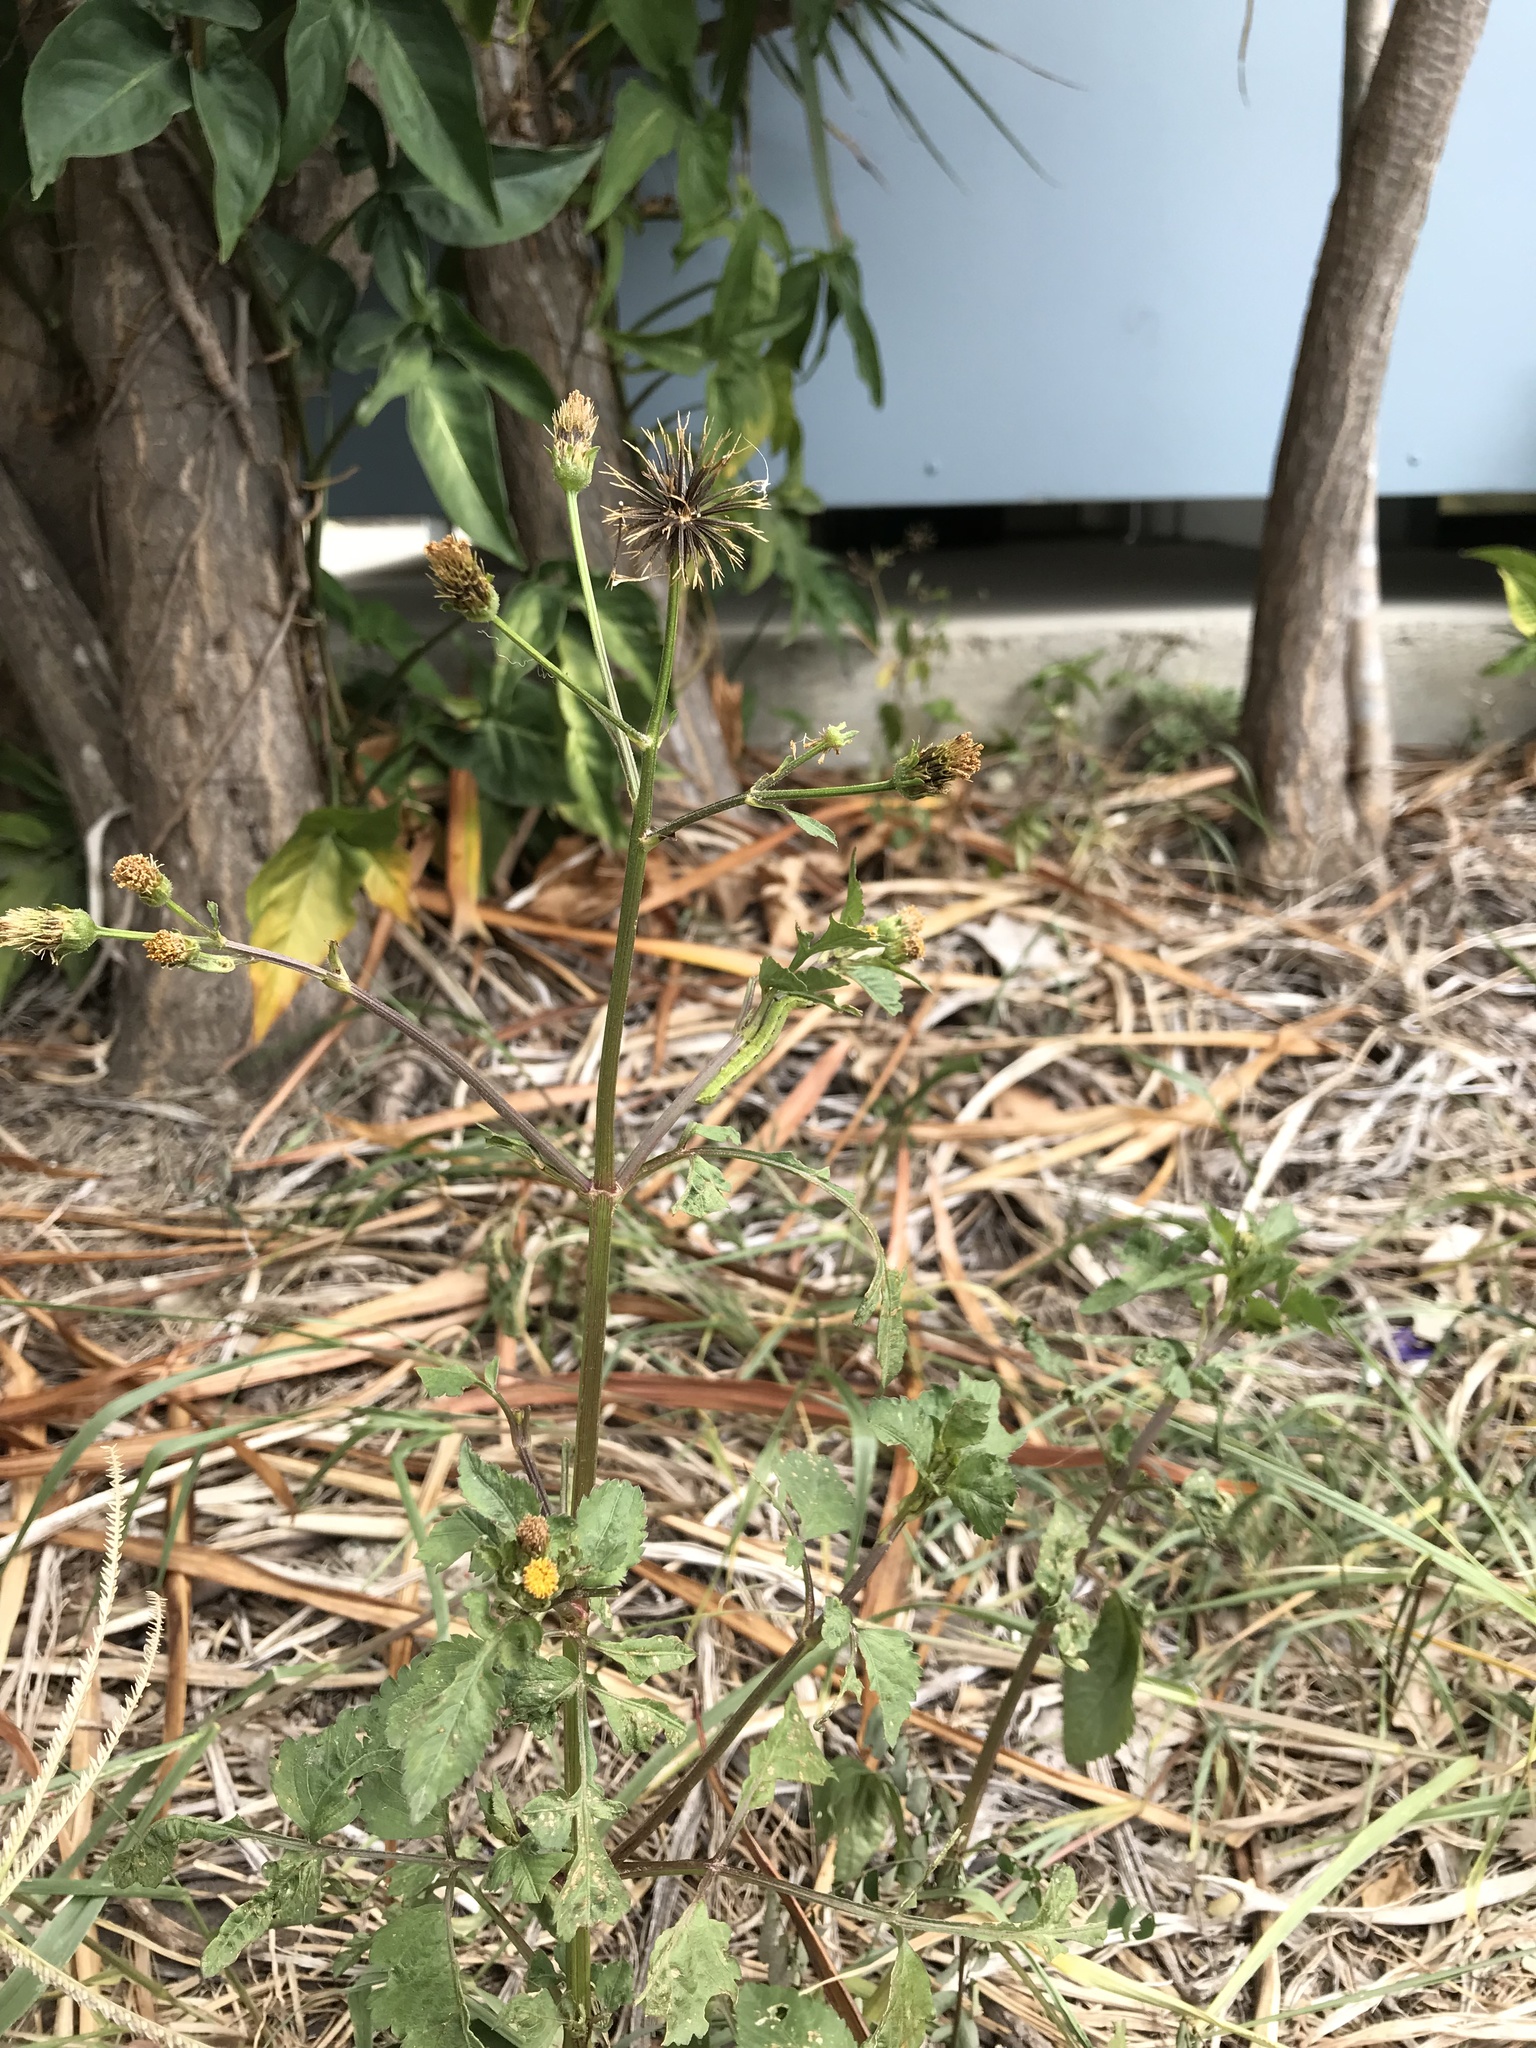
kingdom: Plantae
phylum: Tracheophyta
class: Magnoliopsida
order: Asterales
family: Asteraceae
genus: Bidens
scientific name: Bidens pilosa
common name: Black-jack
